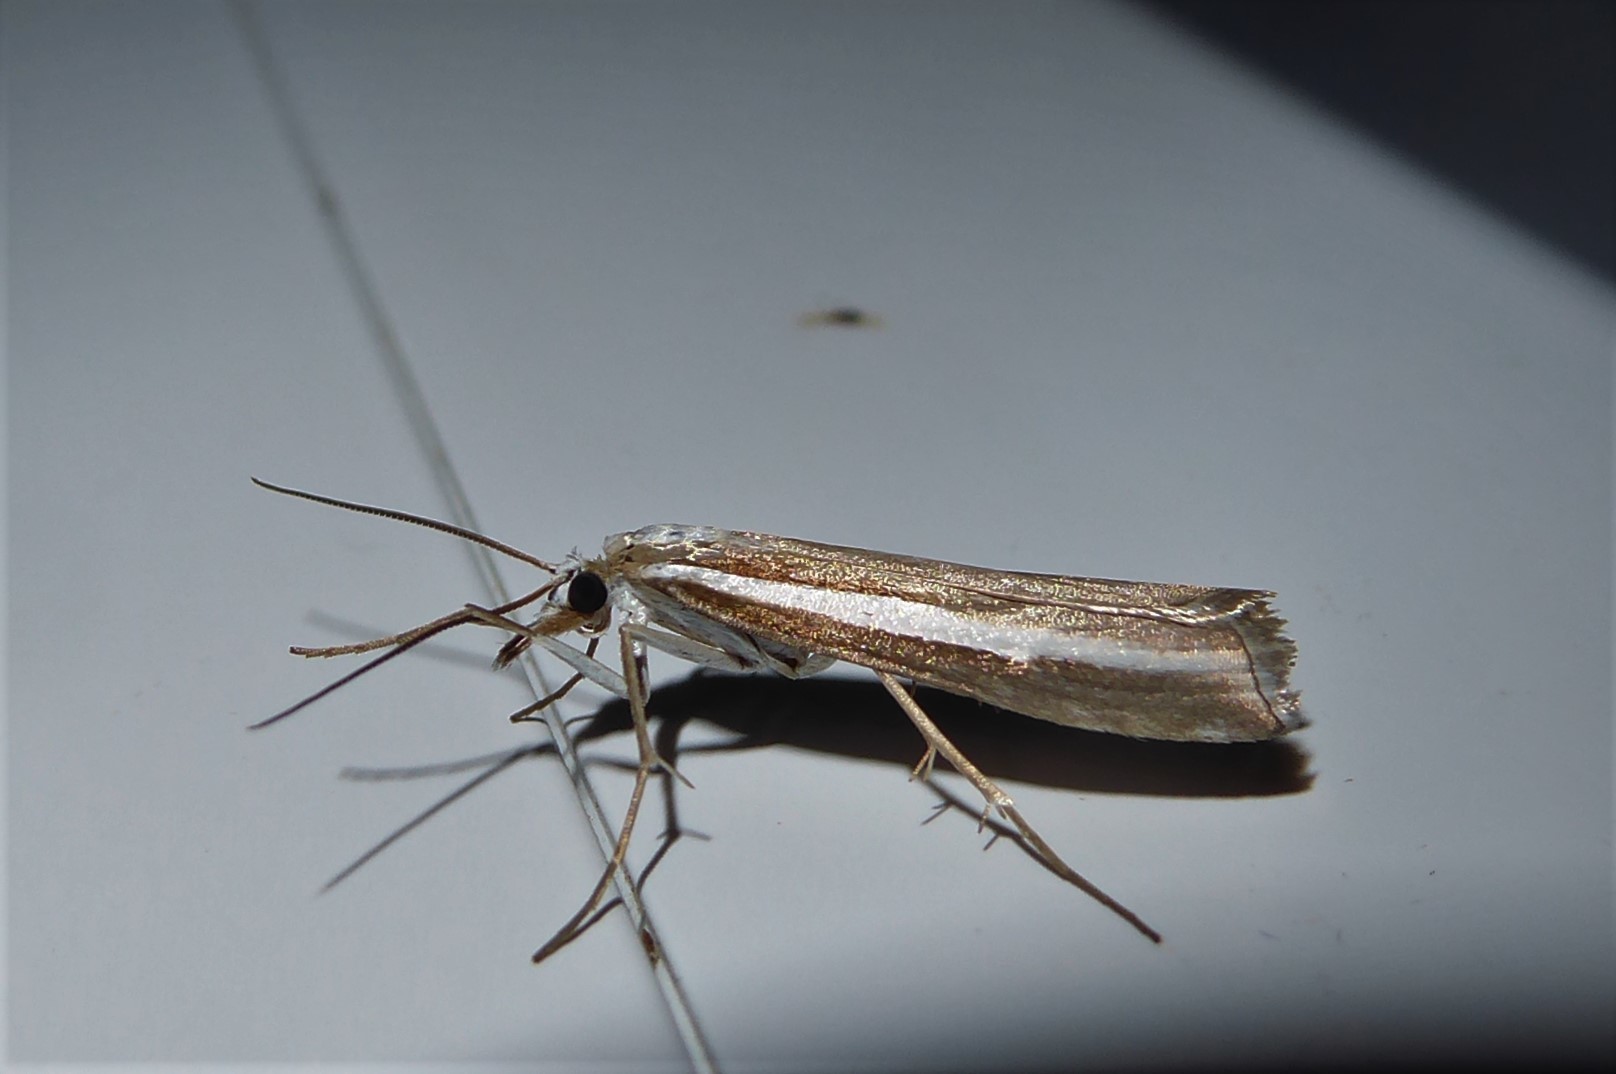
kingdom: Animalia
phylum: Arthropoda
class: Insecta
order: Lepidoptera
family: Crambidae
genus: Orocrambus
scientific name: Orocrambus vittellus
